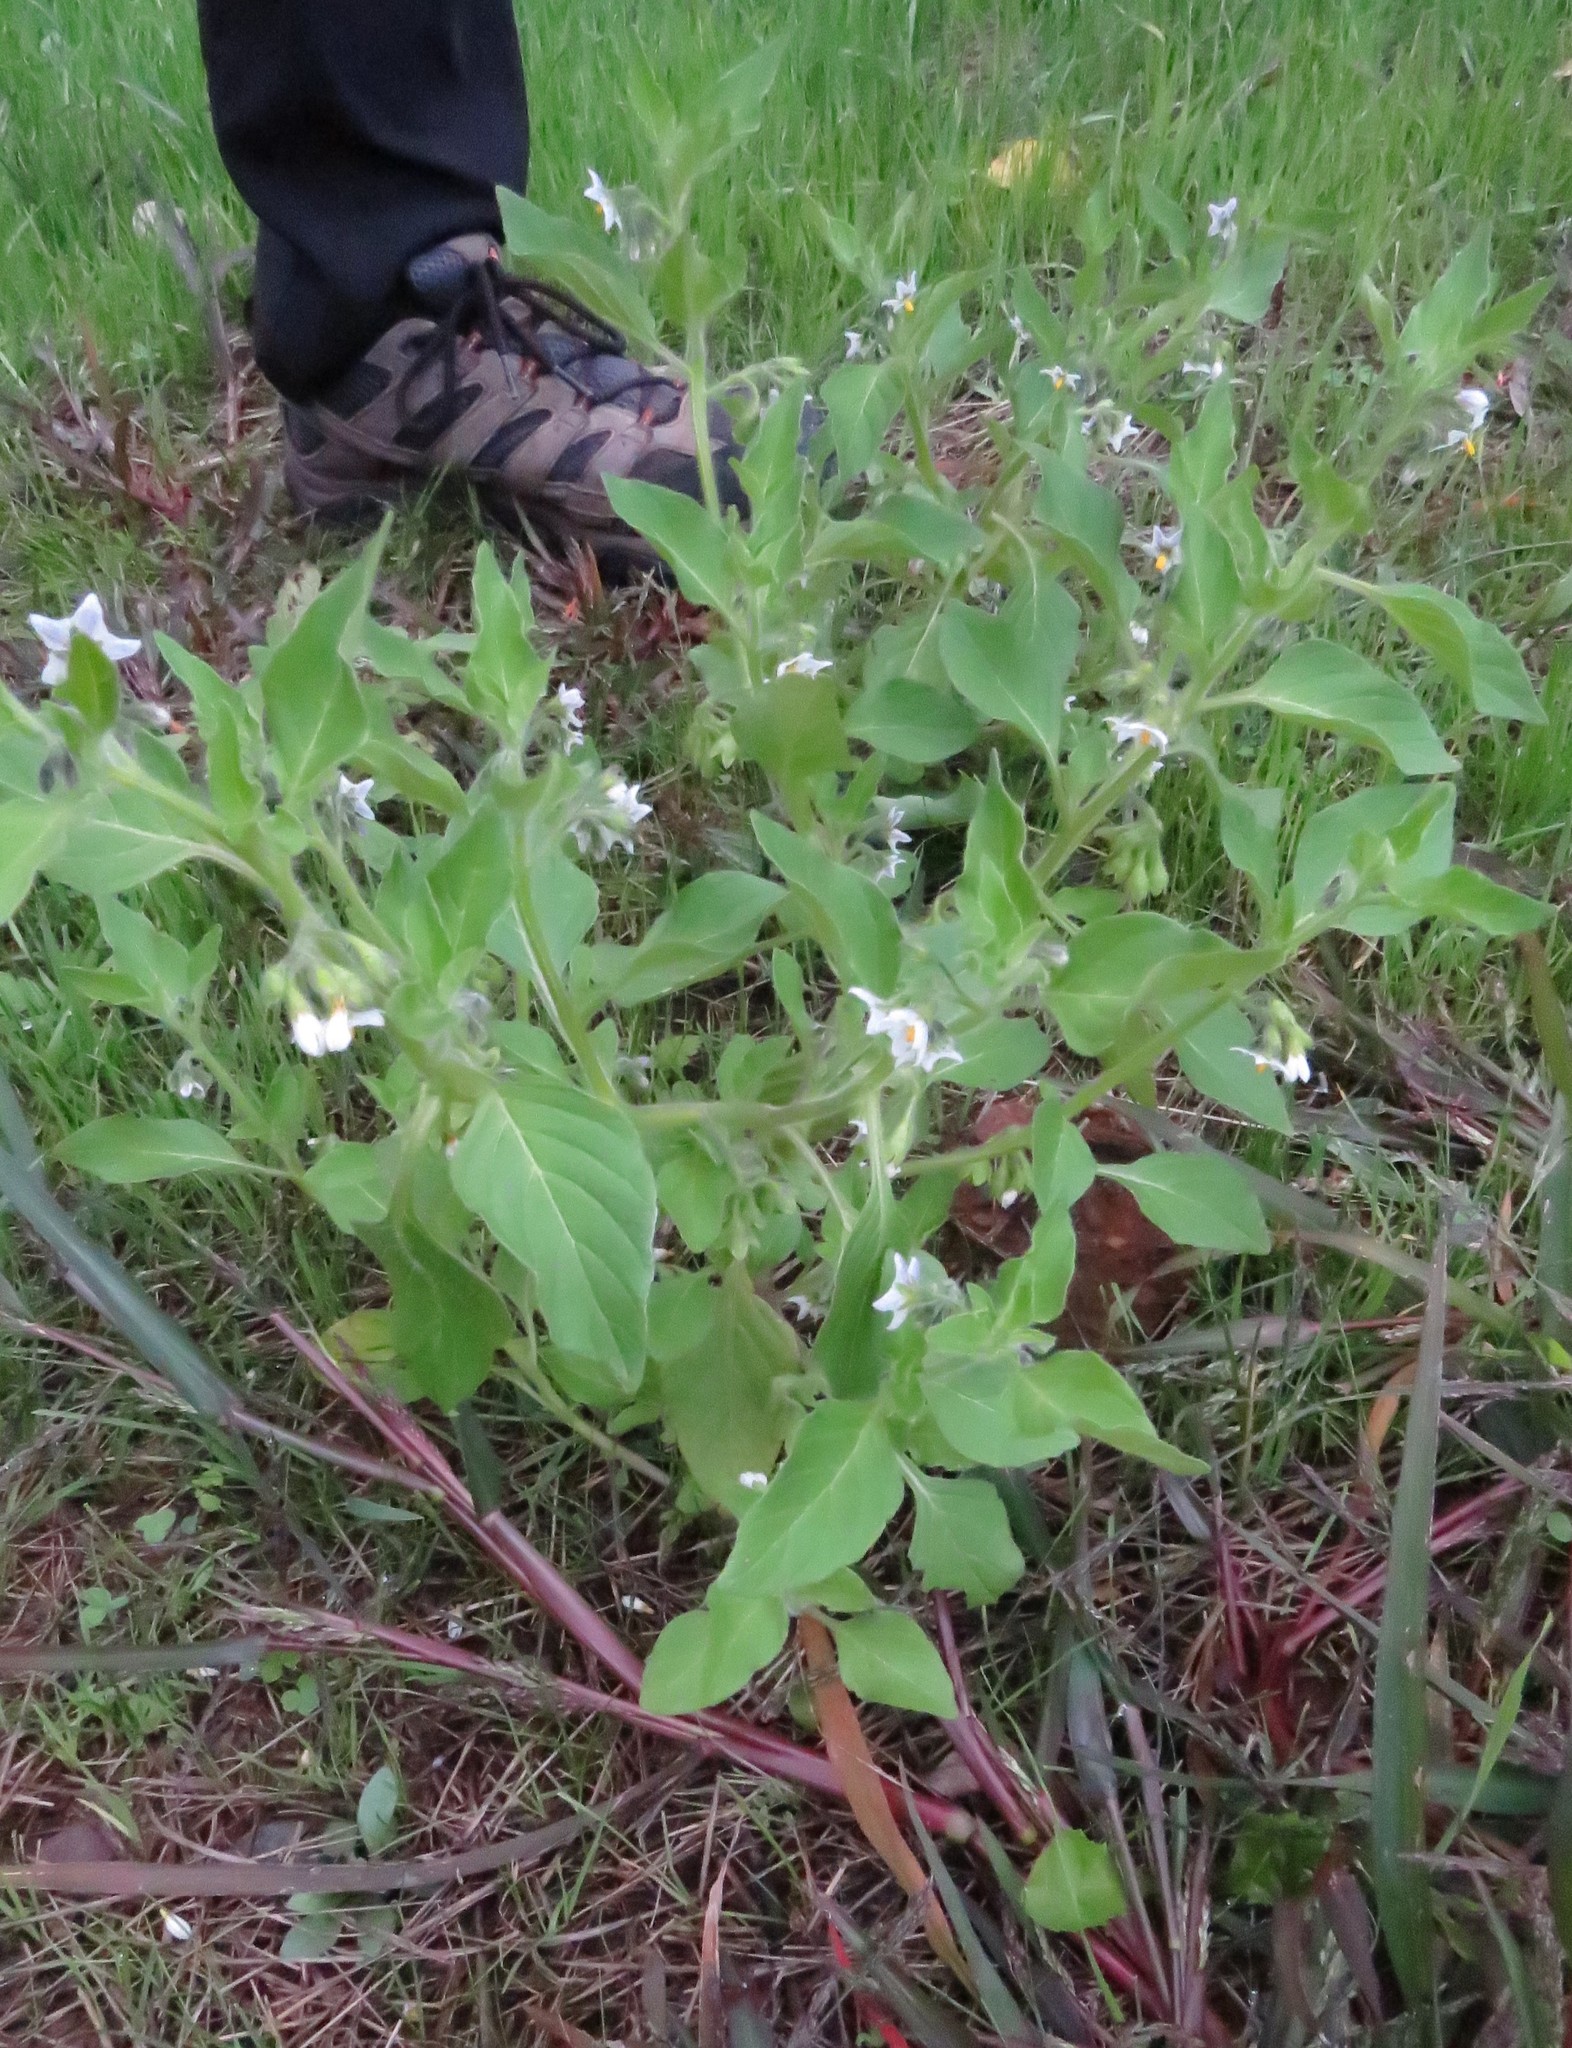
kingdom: Plantae
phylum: Tracheophyta
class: Magnoliopsida
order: Solanales
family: Solanaceae
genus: Solanum
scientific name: Solanum nitidibaccatum
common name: Hairy nightshade
